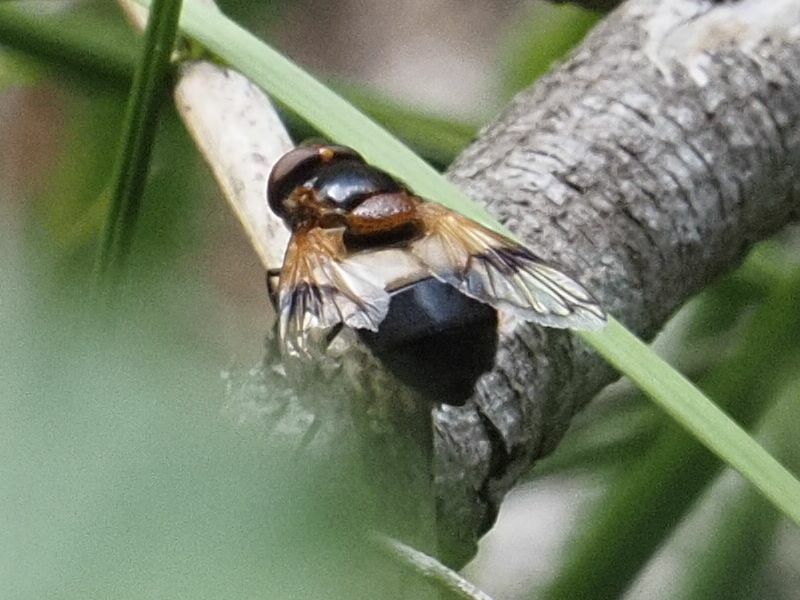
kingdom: Animalia
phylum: Arthropoda
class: Insecta
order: Diptera
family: Syrphidae
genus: Volucella
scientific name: Volucella pellucens
